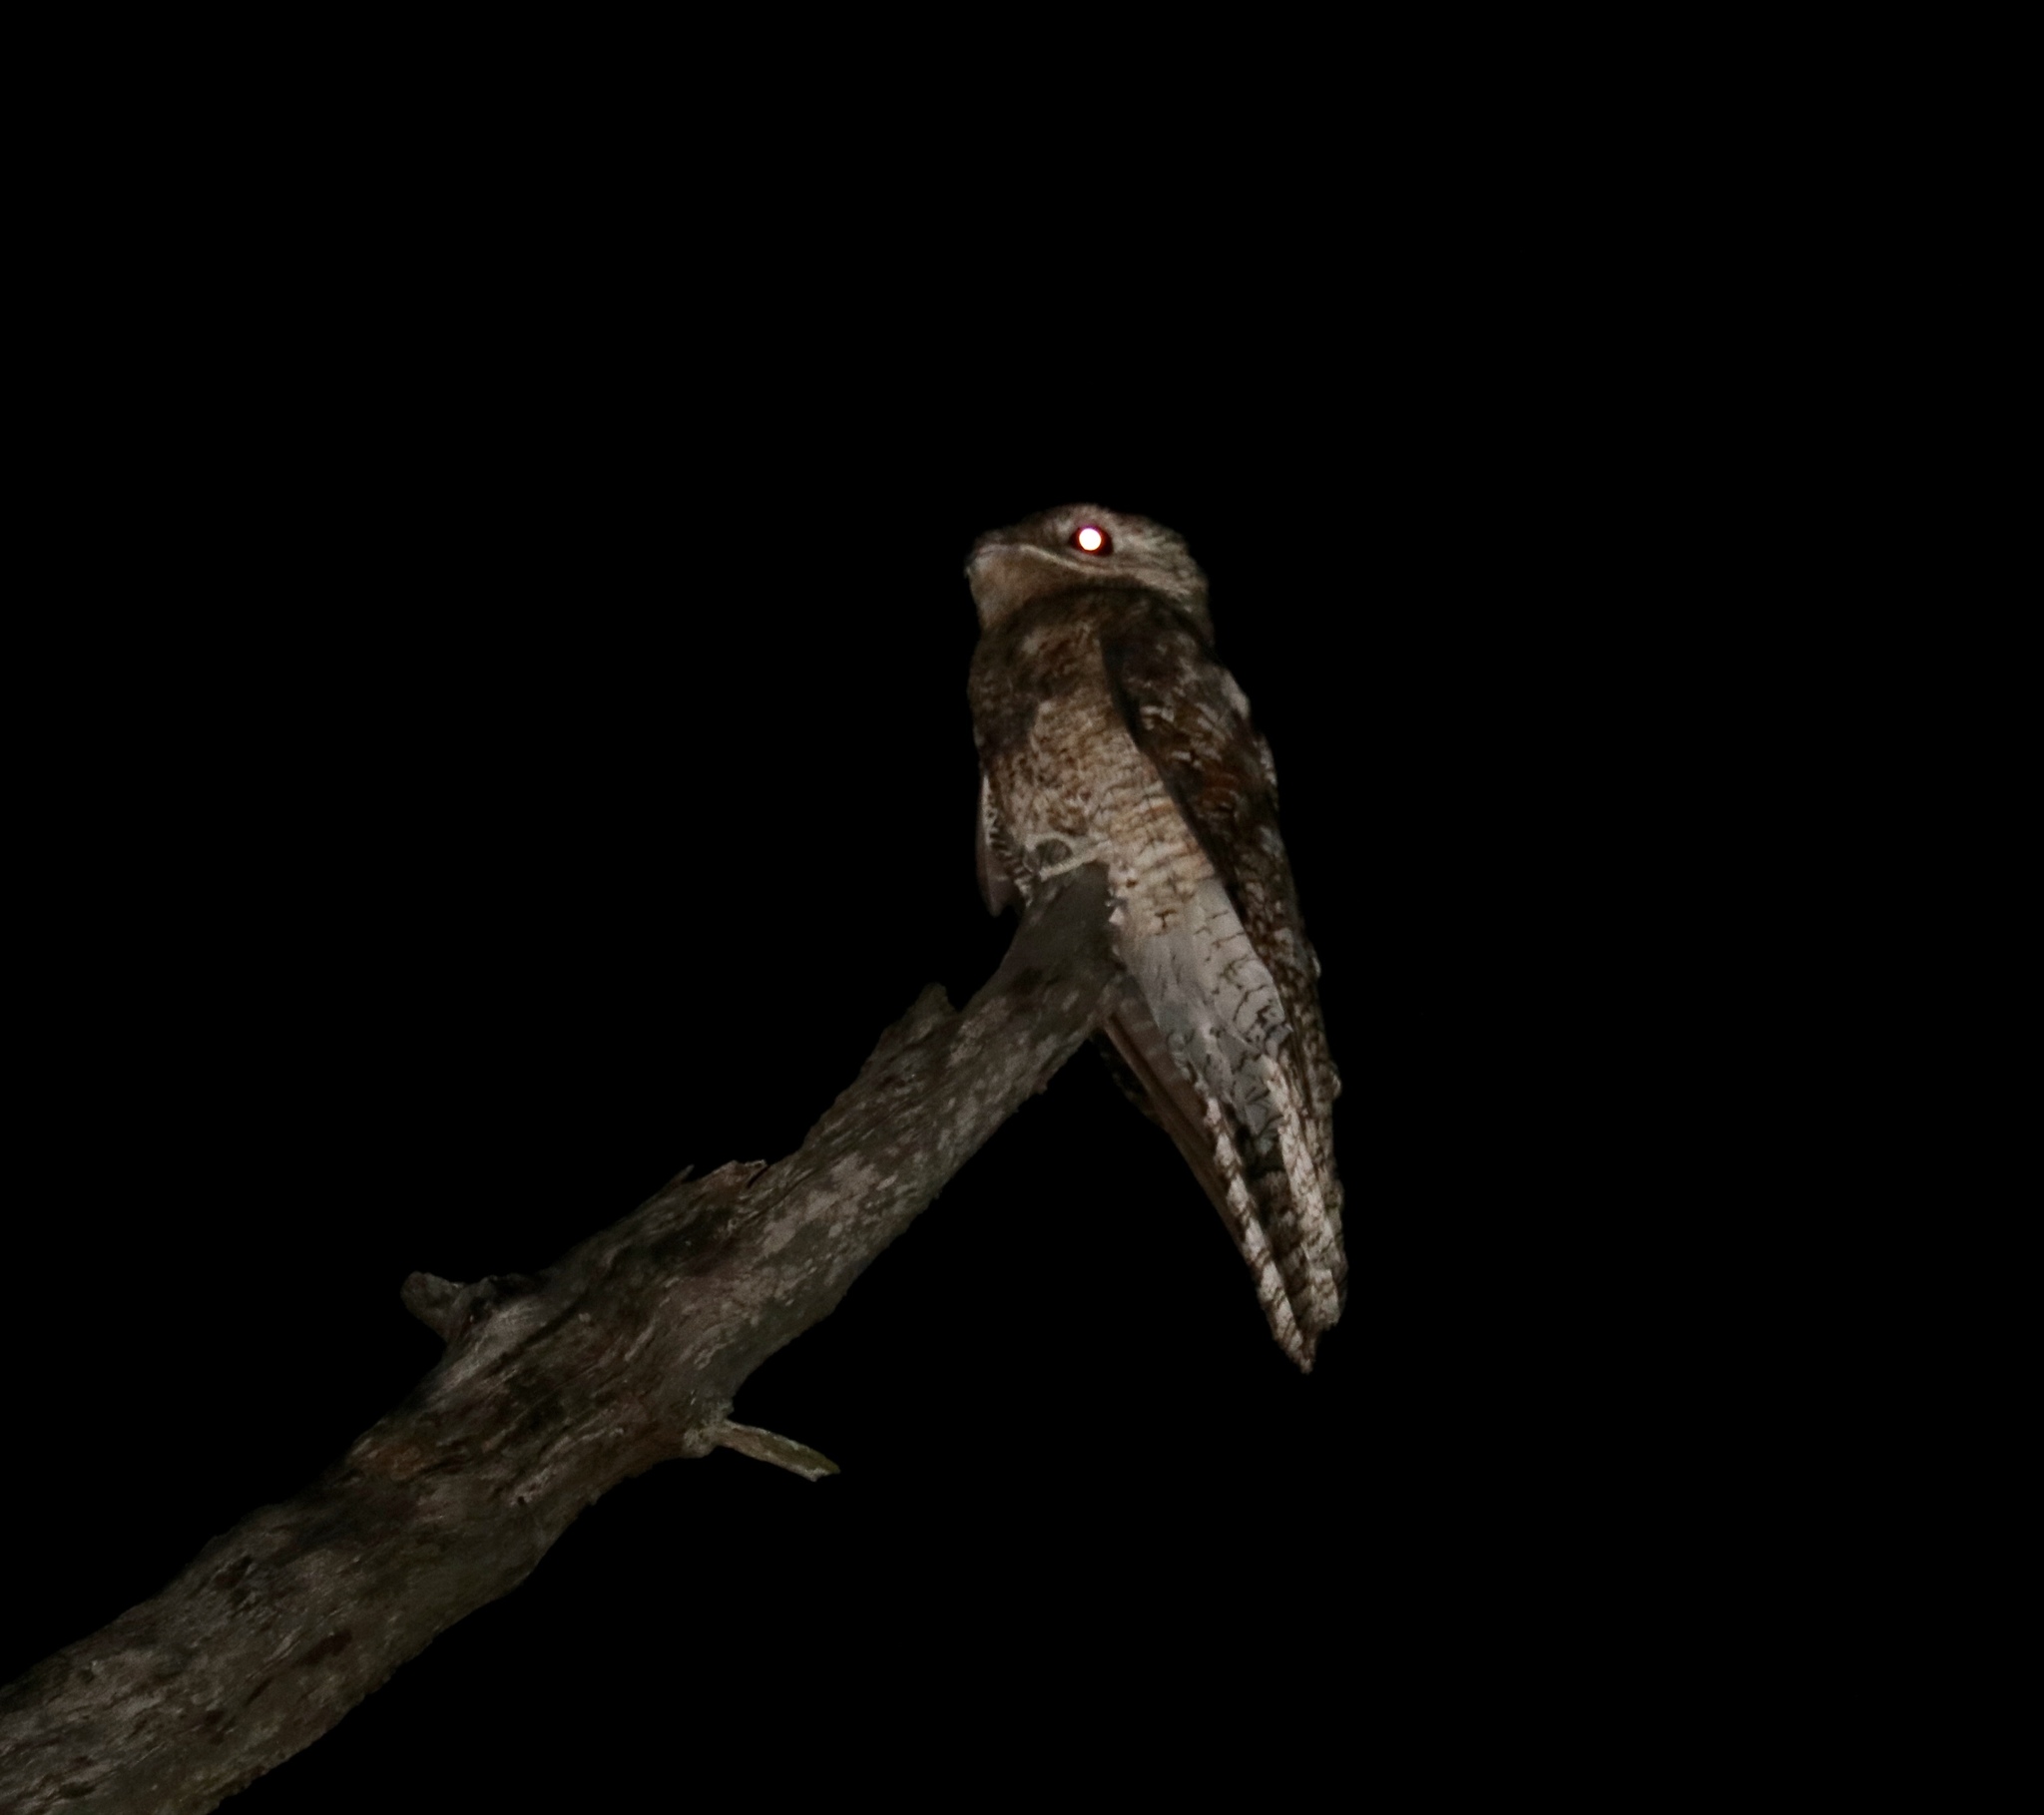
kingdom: Animalia
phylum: Chordata
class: Aves
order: Nyctibiiformes
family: Nyctibiidae
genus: Nyctibius
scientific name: Nyctibius grandis
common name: Great potoo
